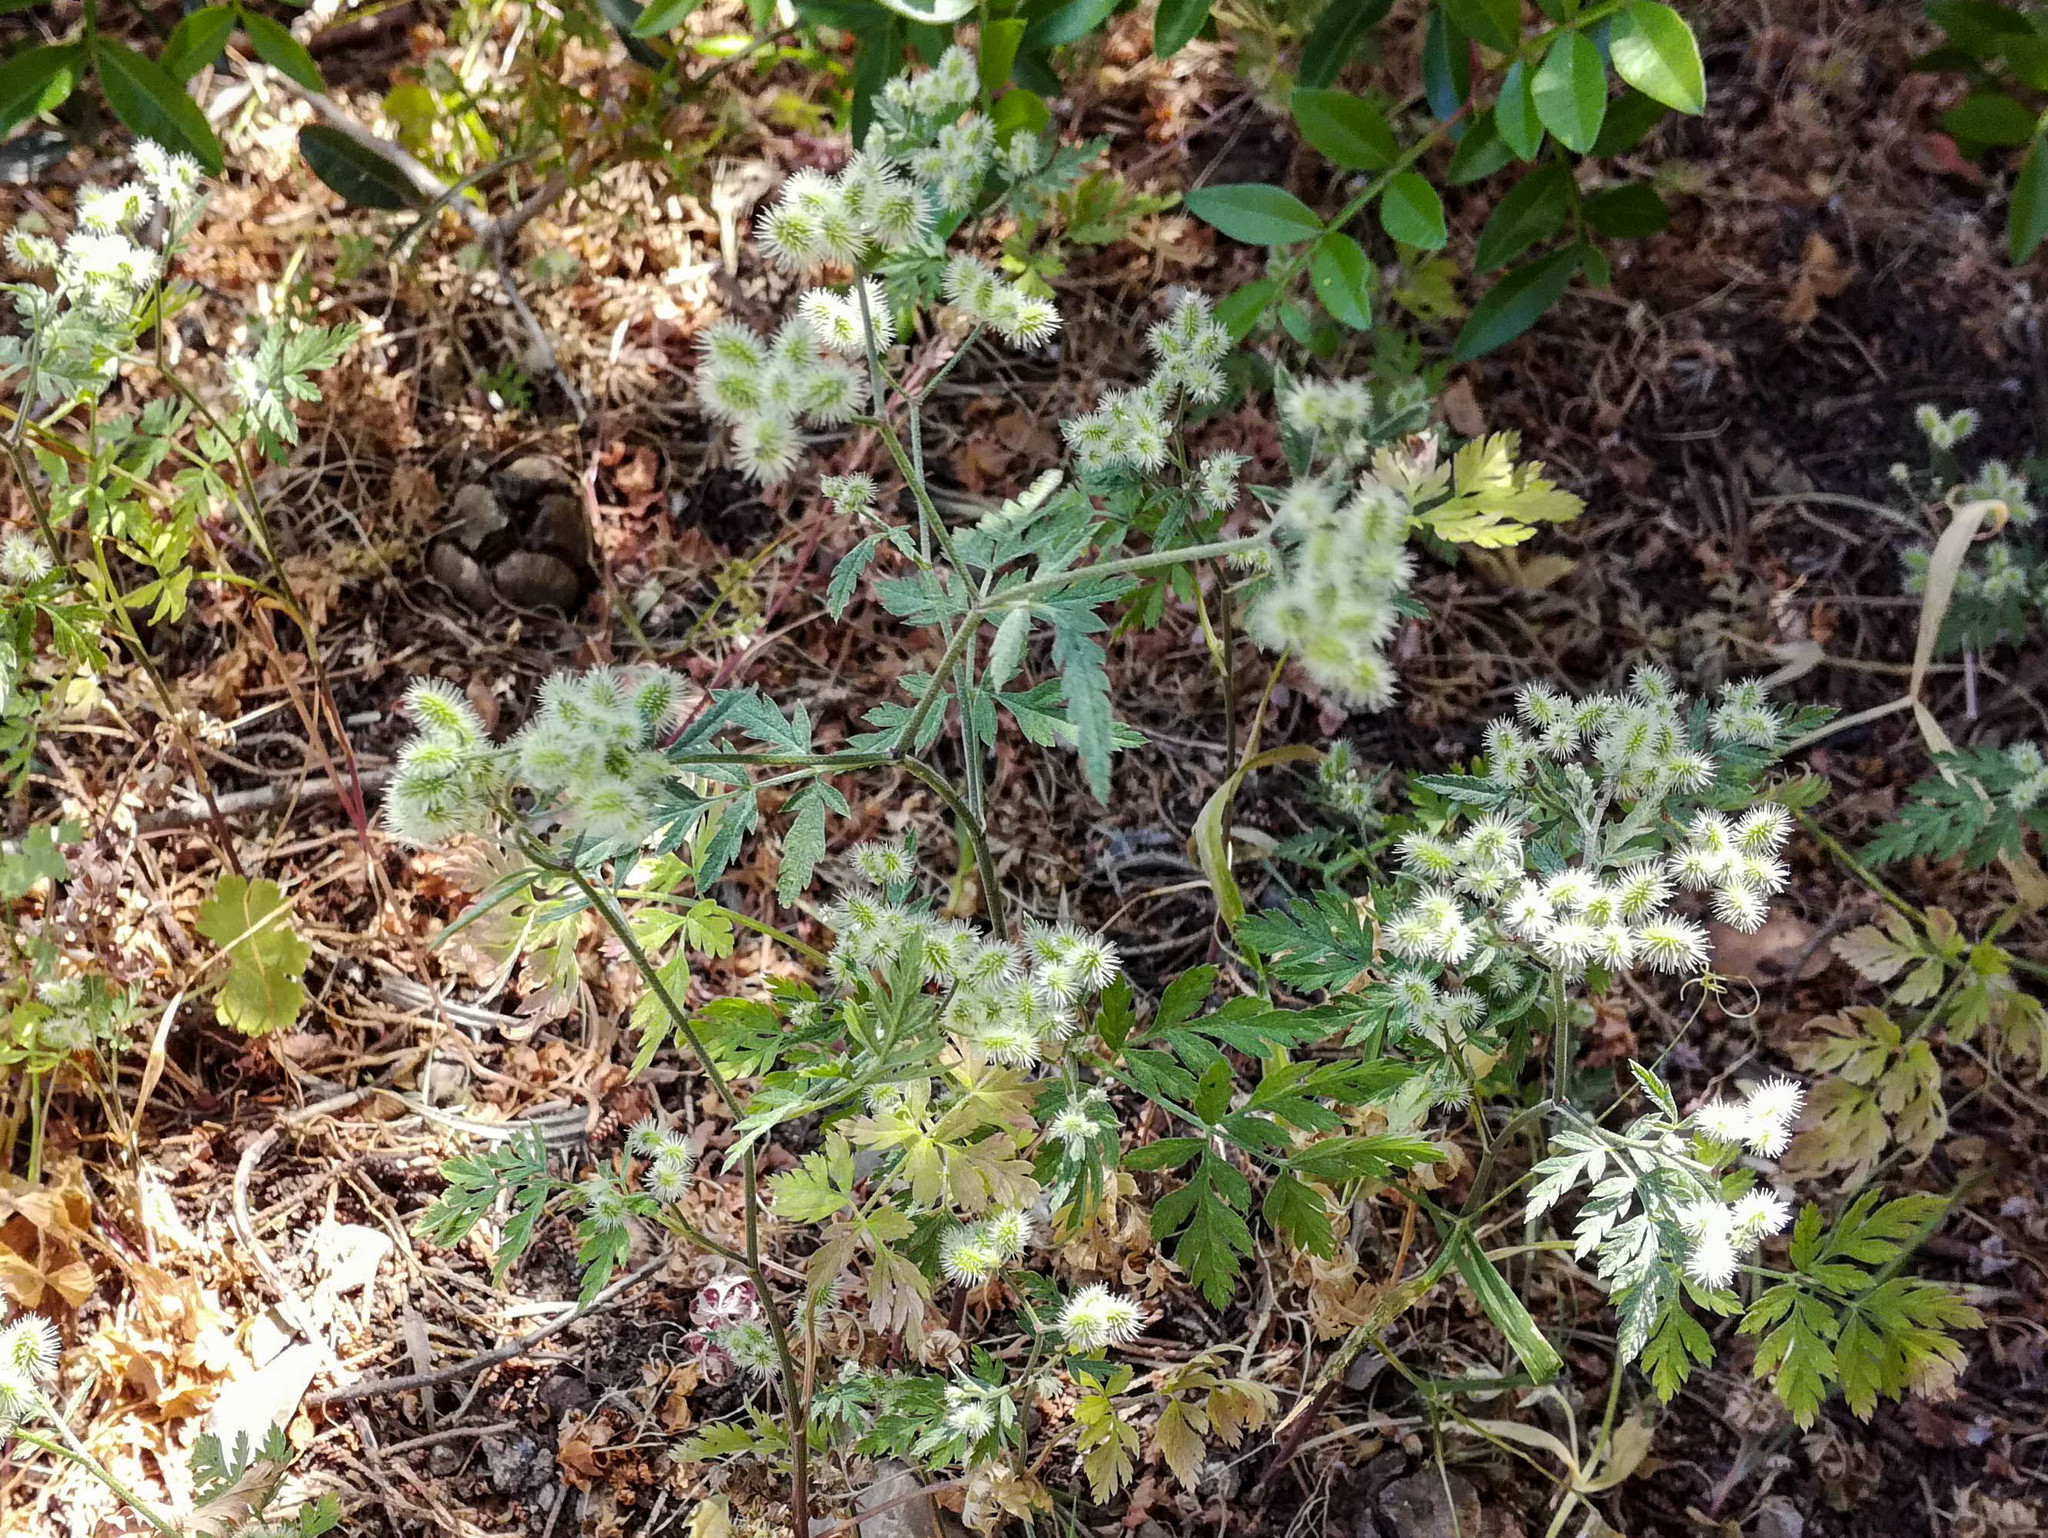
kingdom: Plantae
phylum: Tracheophyta
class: Magnoliopsida
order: Apiales
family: Apiaceae
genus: Torilis
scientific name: Torilis africana
